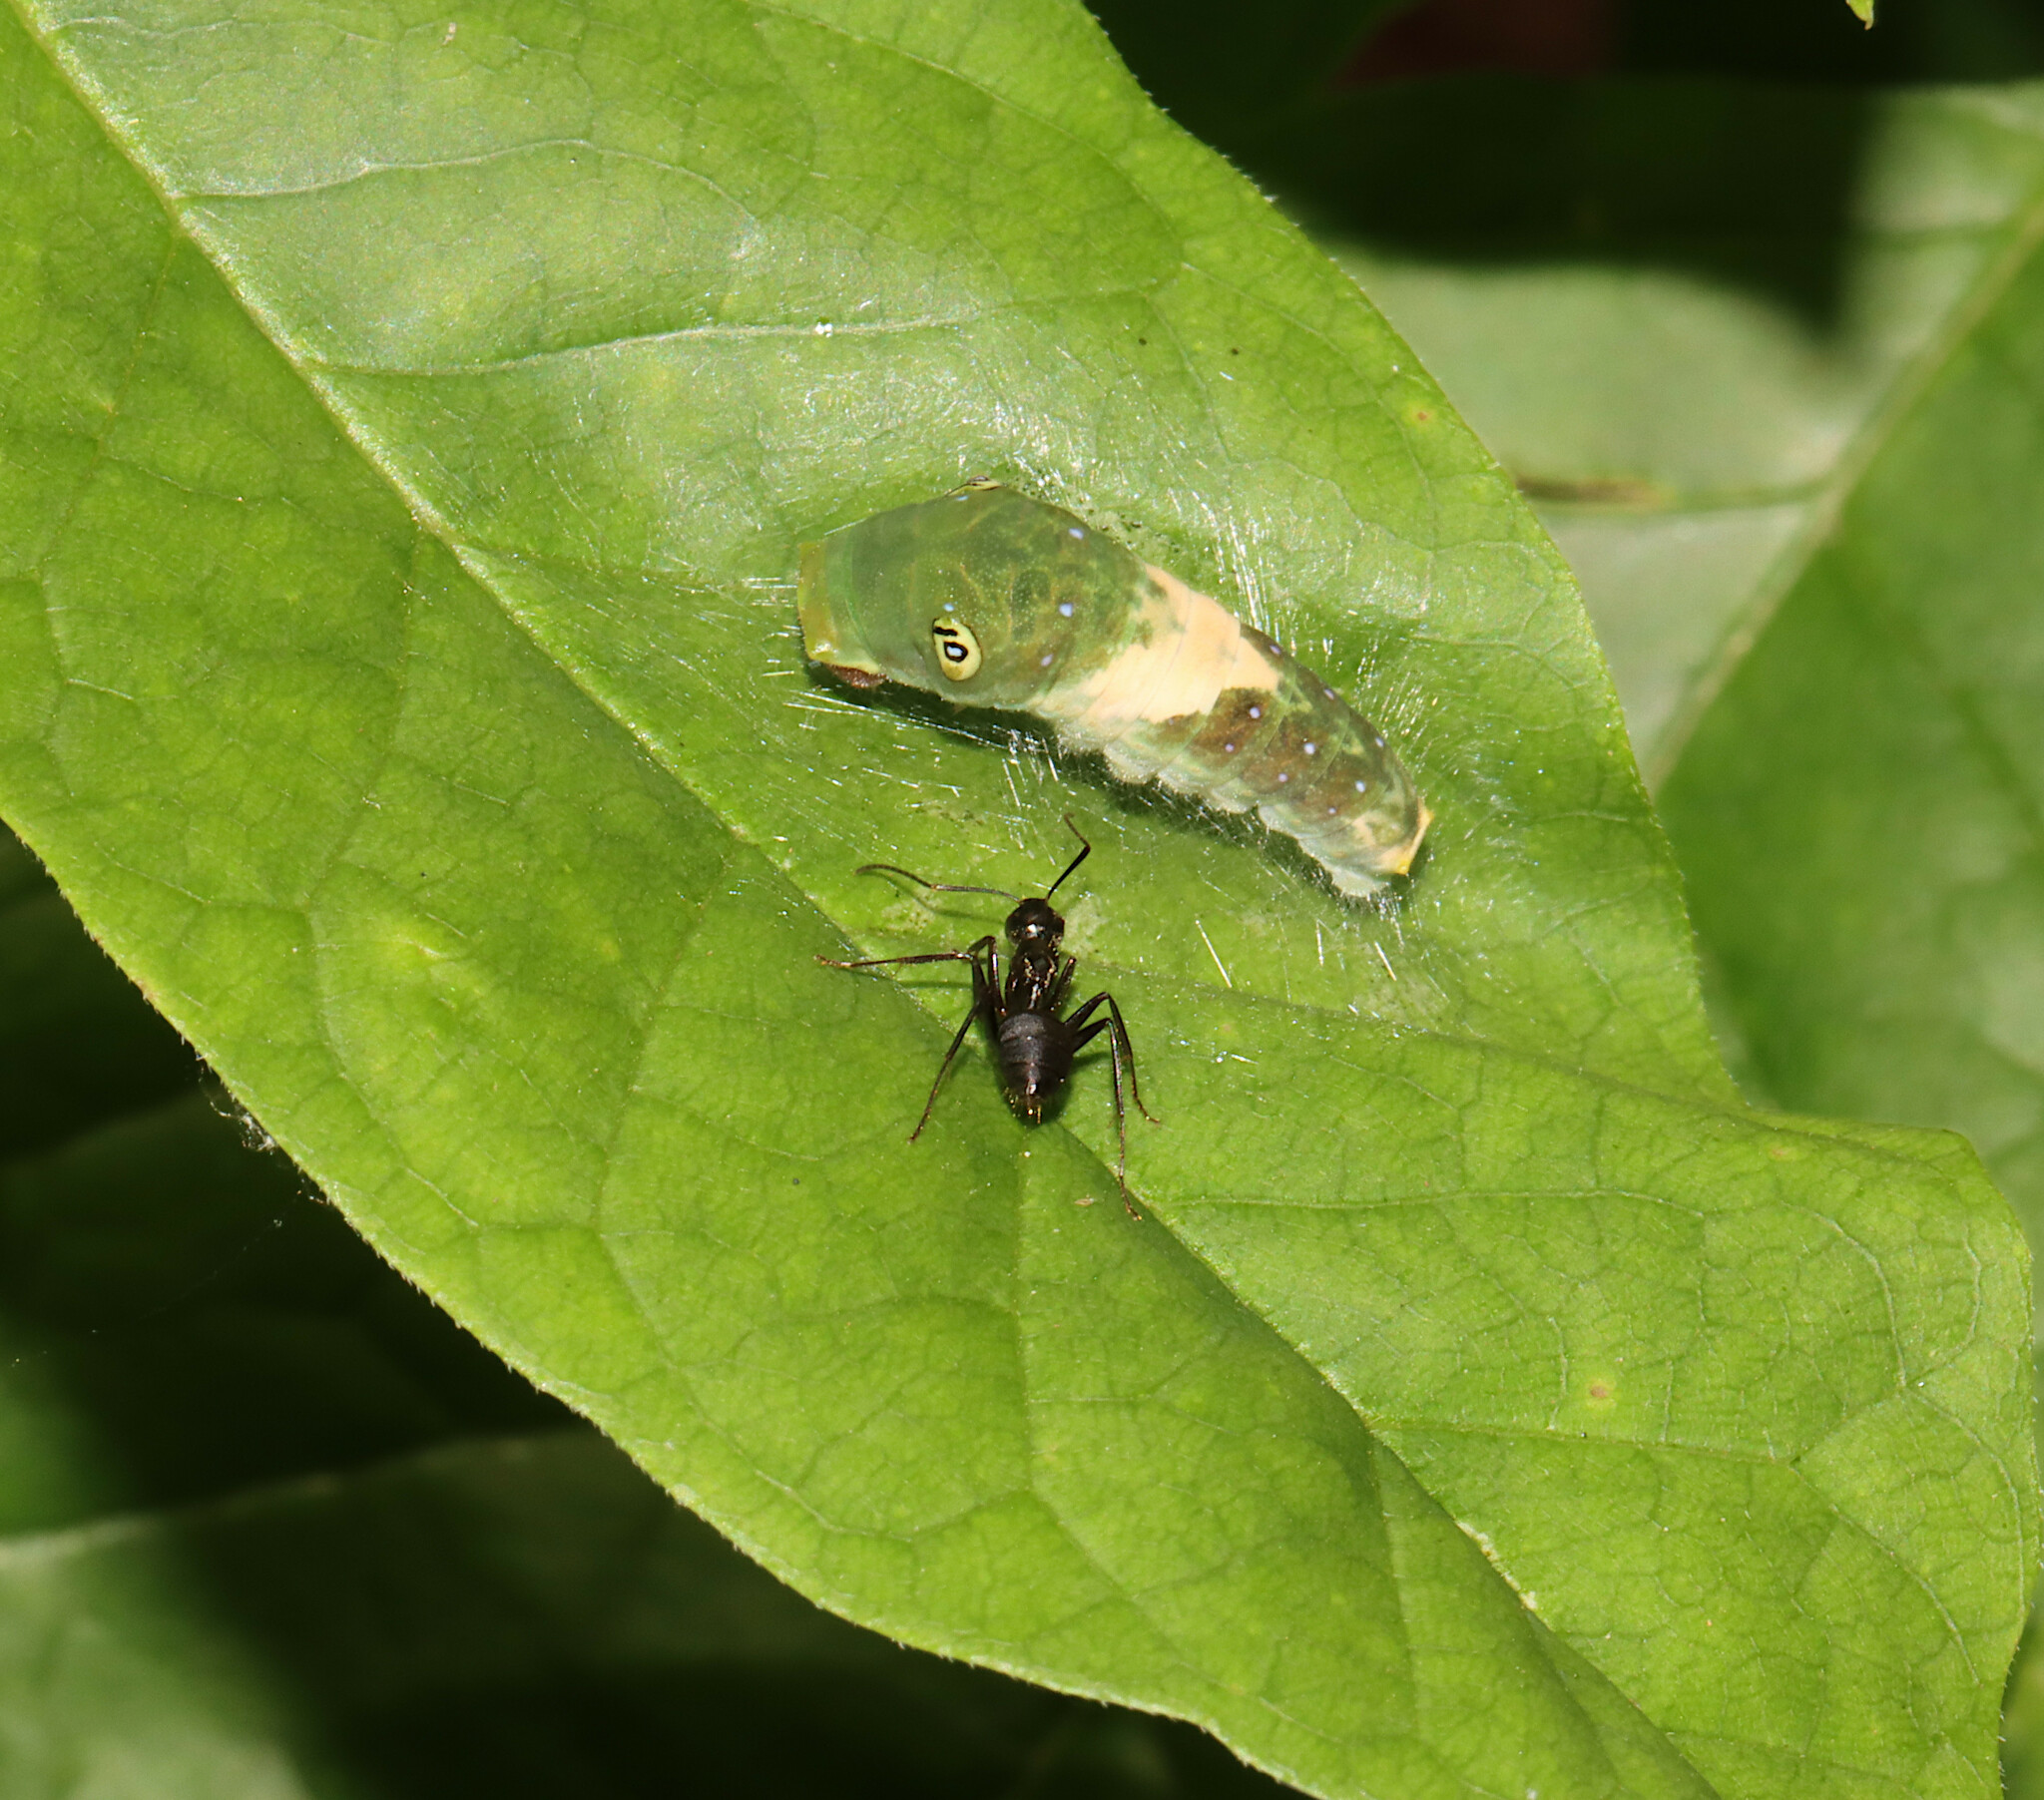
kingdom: Animalia
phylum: Arthropoda
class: Insecta
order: Lepidoptera
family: Papilionidae
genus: Papilio
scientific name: Papilio glaucus
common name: Tiger swallowtail
